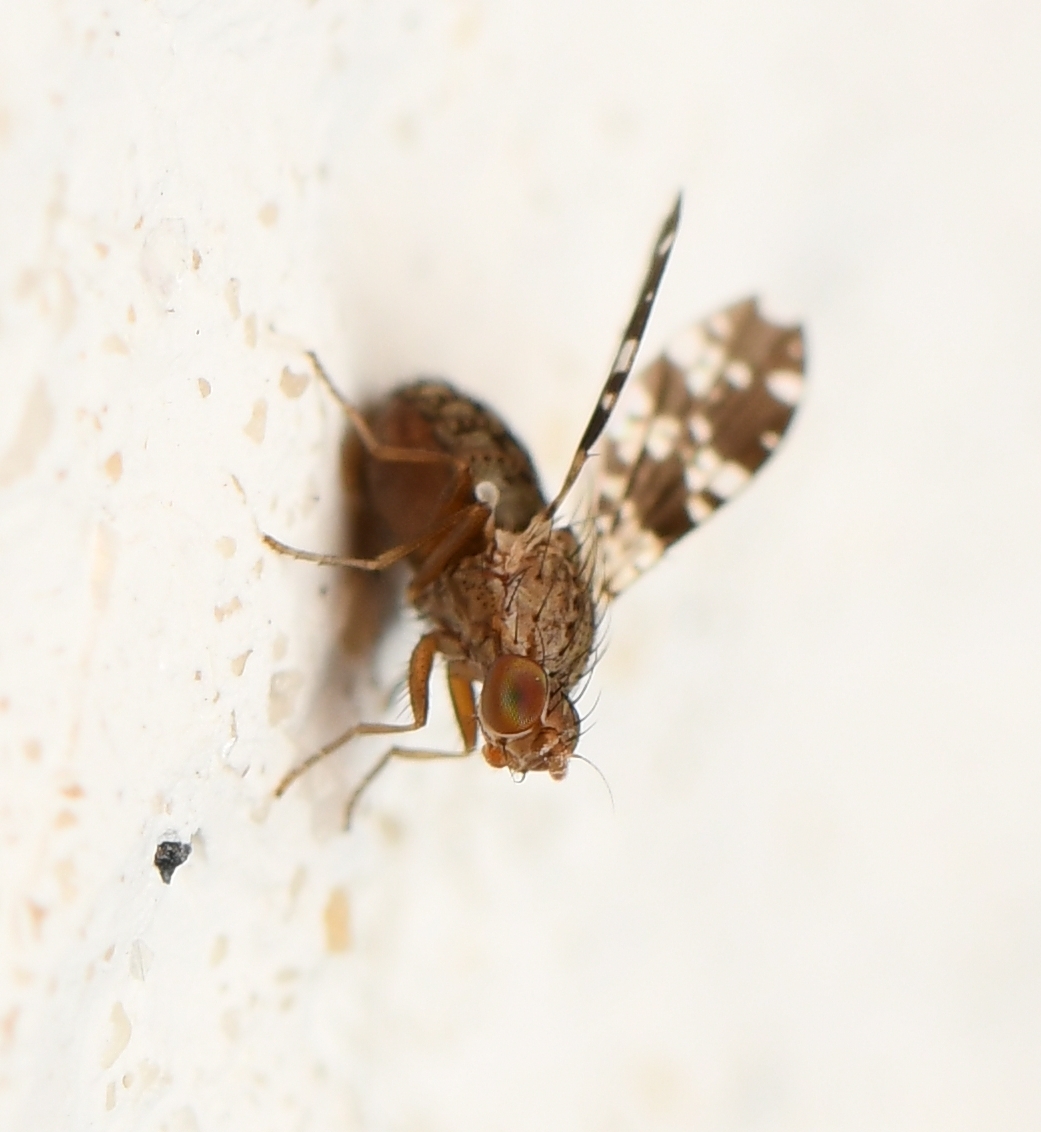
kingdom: Animalia
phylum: Arthropoda
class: Insecta
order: Diptera
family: Heleomyzidae
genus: Trixoscelis
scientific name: Trixoscelis ornata
